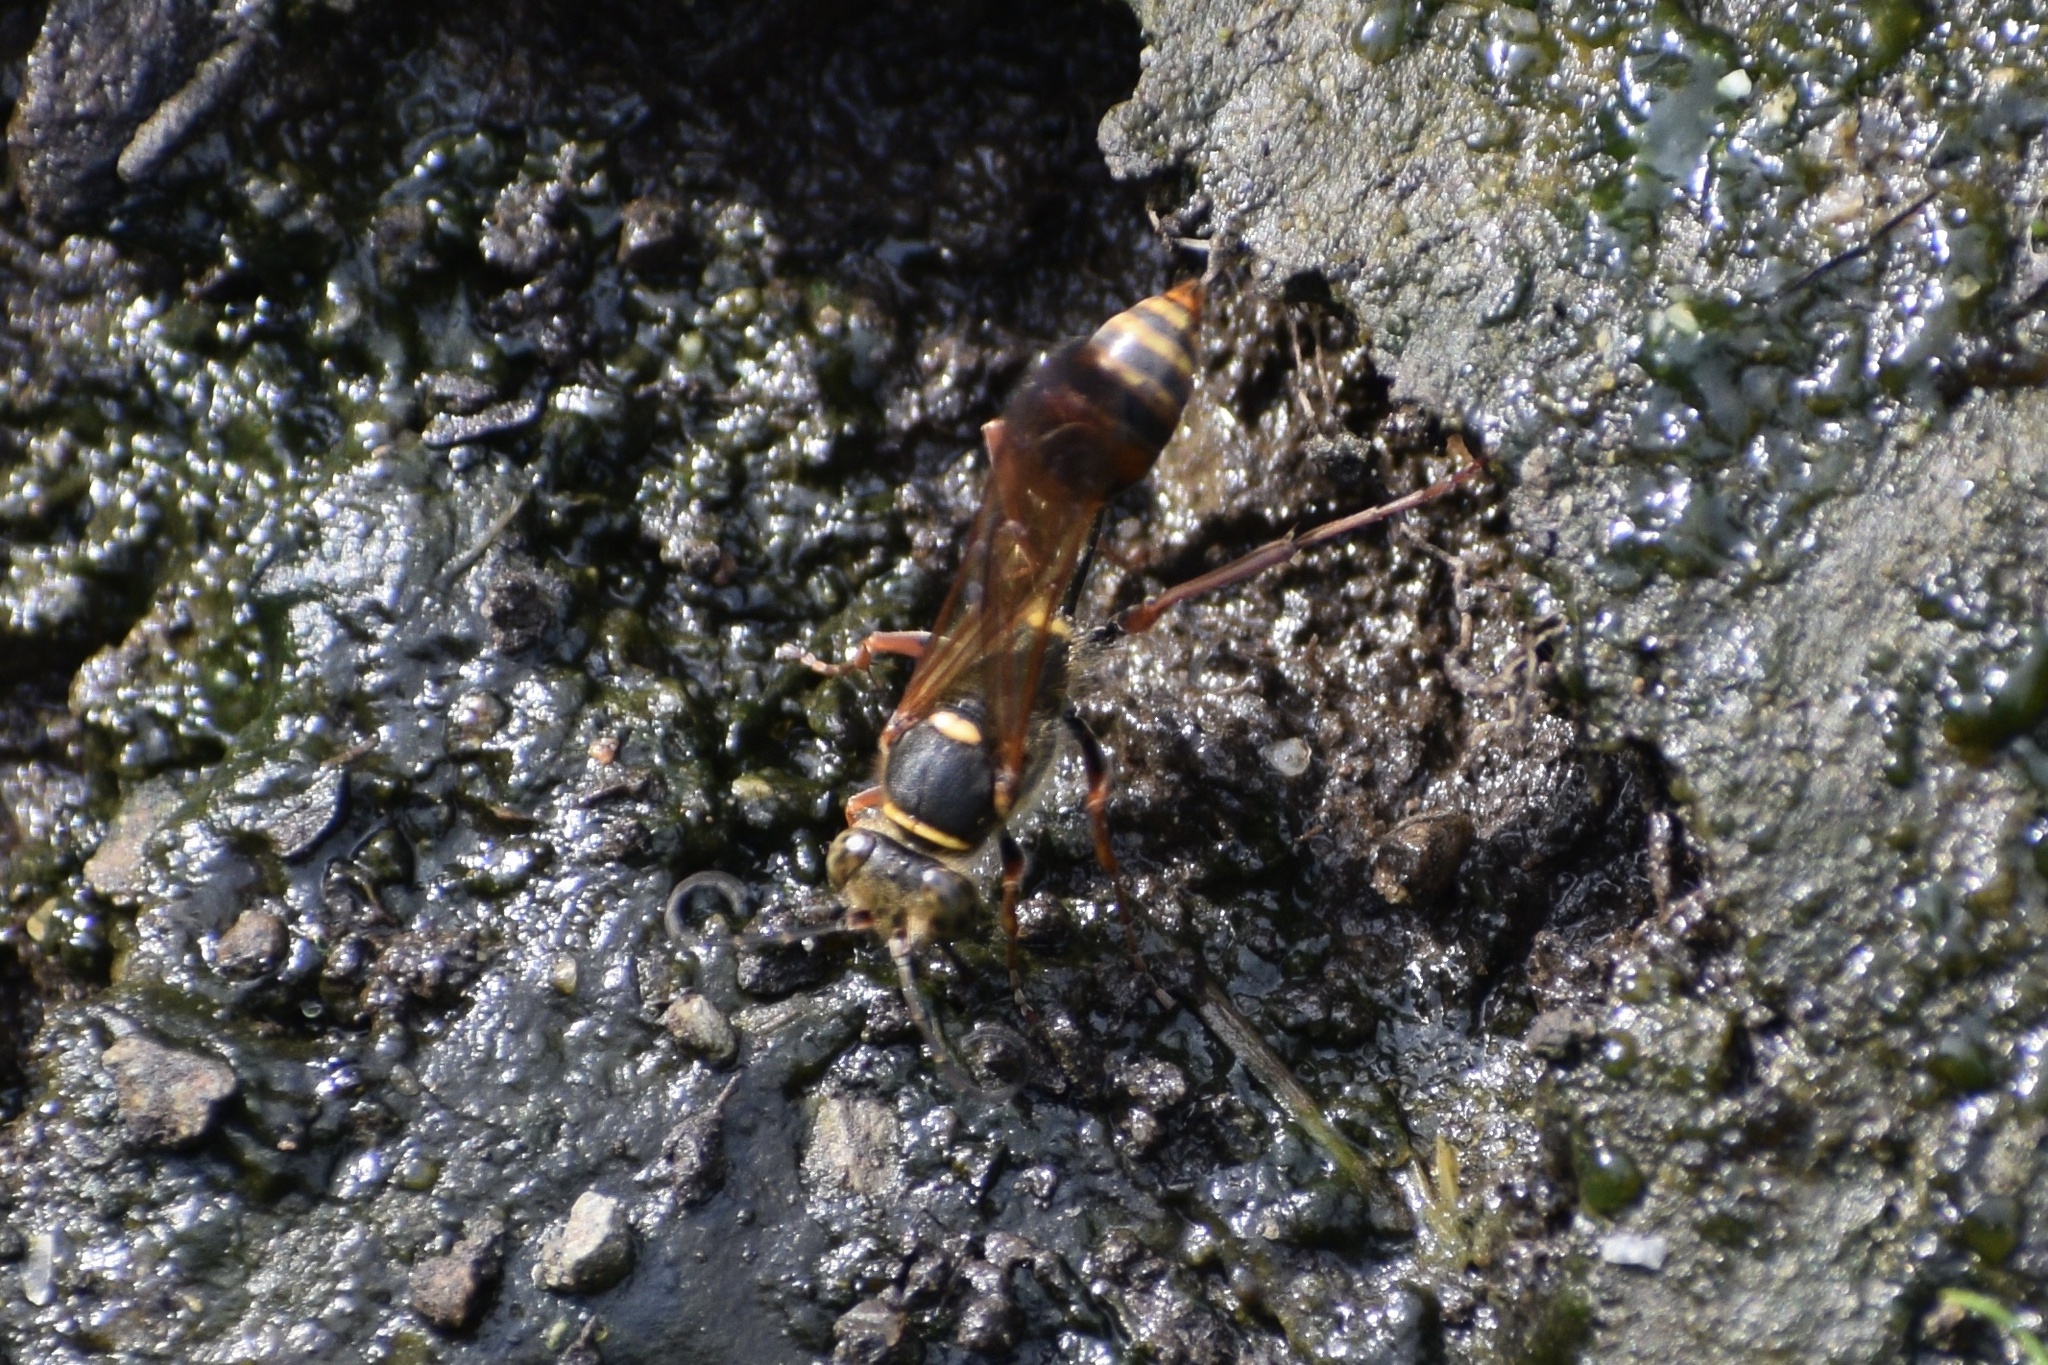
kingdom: Animalia
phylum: Arthropoda
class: Insecta
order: Hymenoptera
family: Sphecidae
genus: Sceliphron
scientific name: Sceliphron curvatum
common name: Pèlopèe
